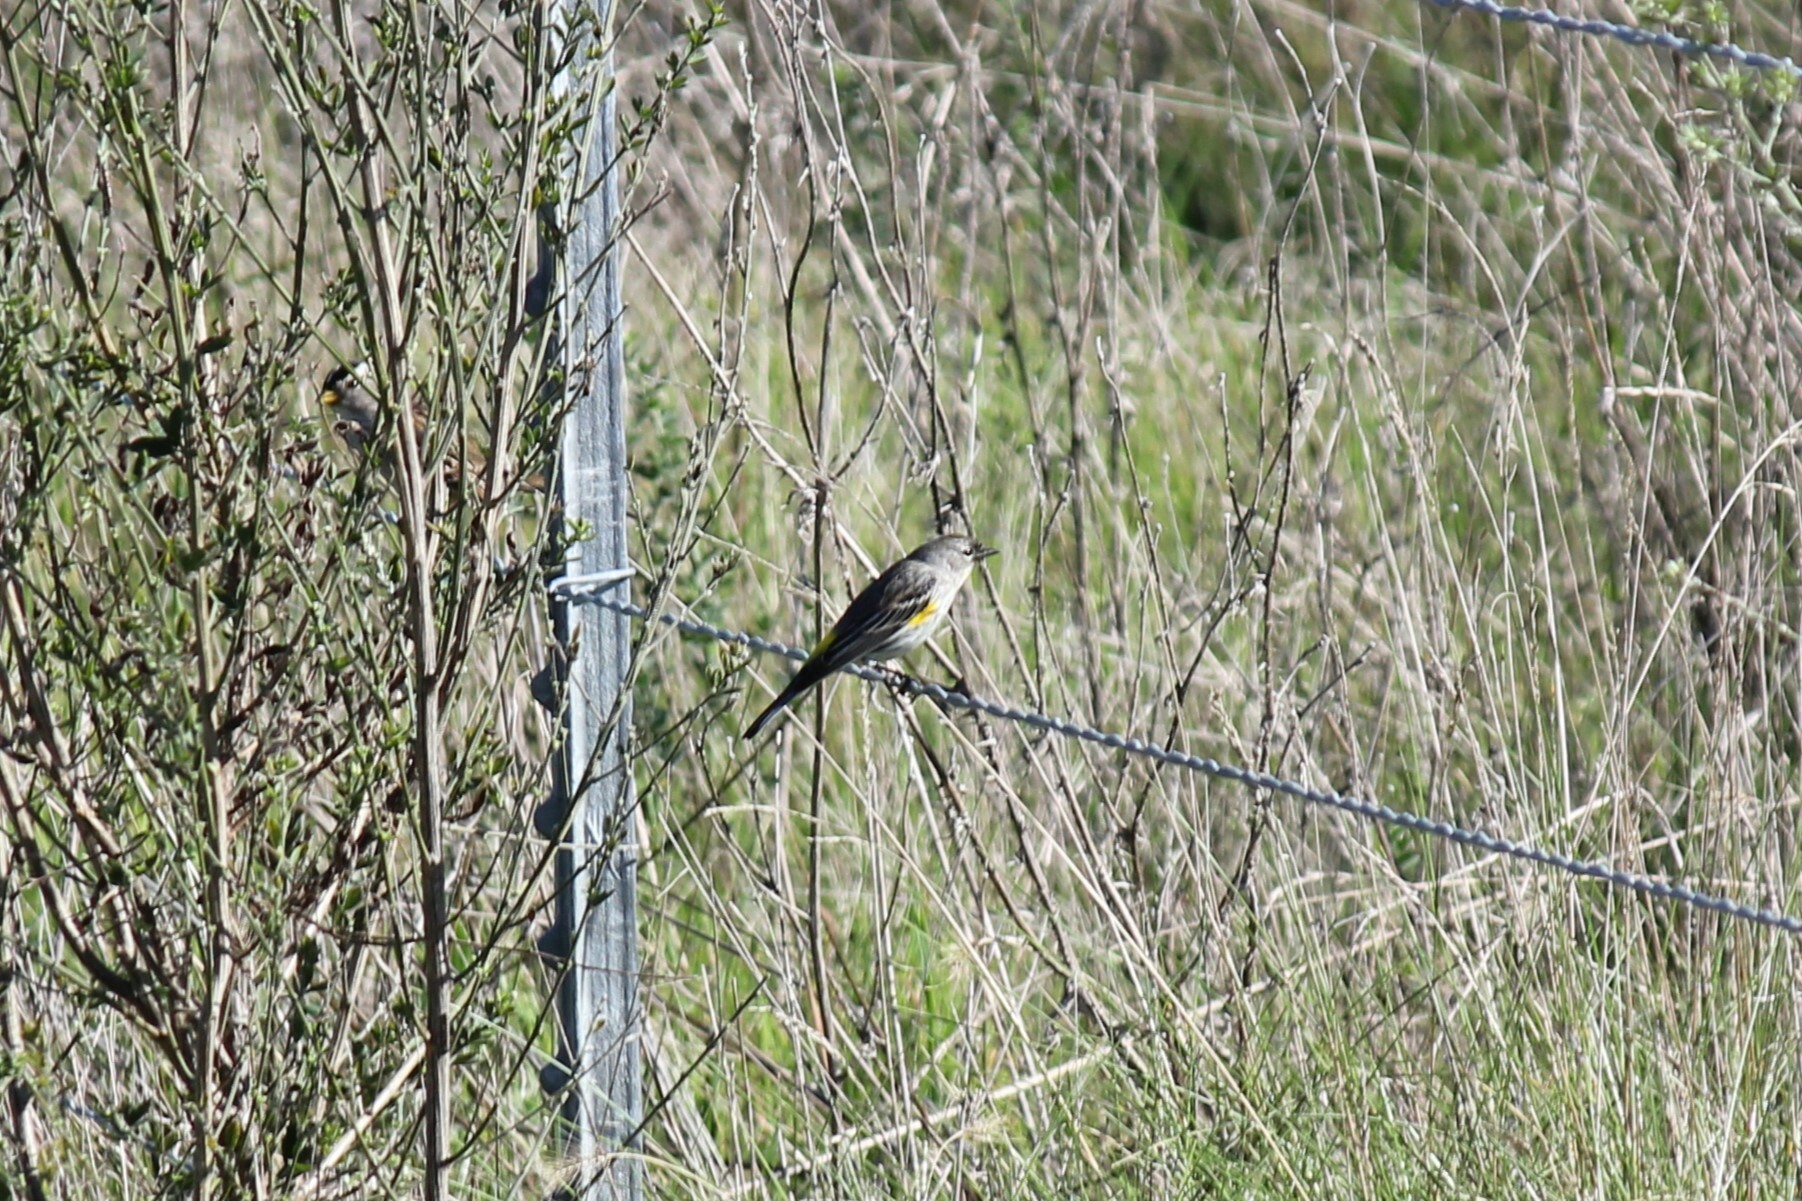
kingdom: Animalia
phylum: Chordata
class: Aves
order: Passeriformes
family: Parulidae
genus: Setophaga
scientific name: Setophaga coronata
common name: Myrtle warbler
